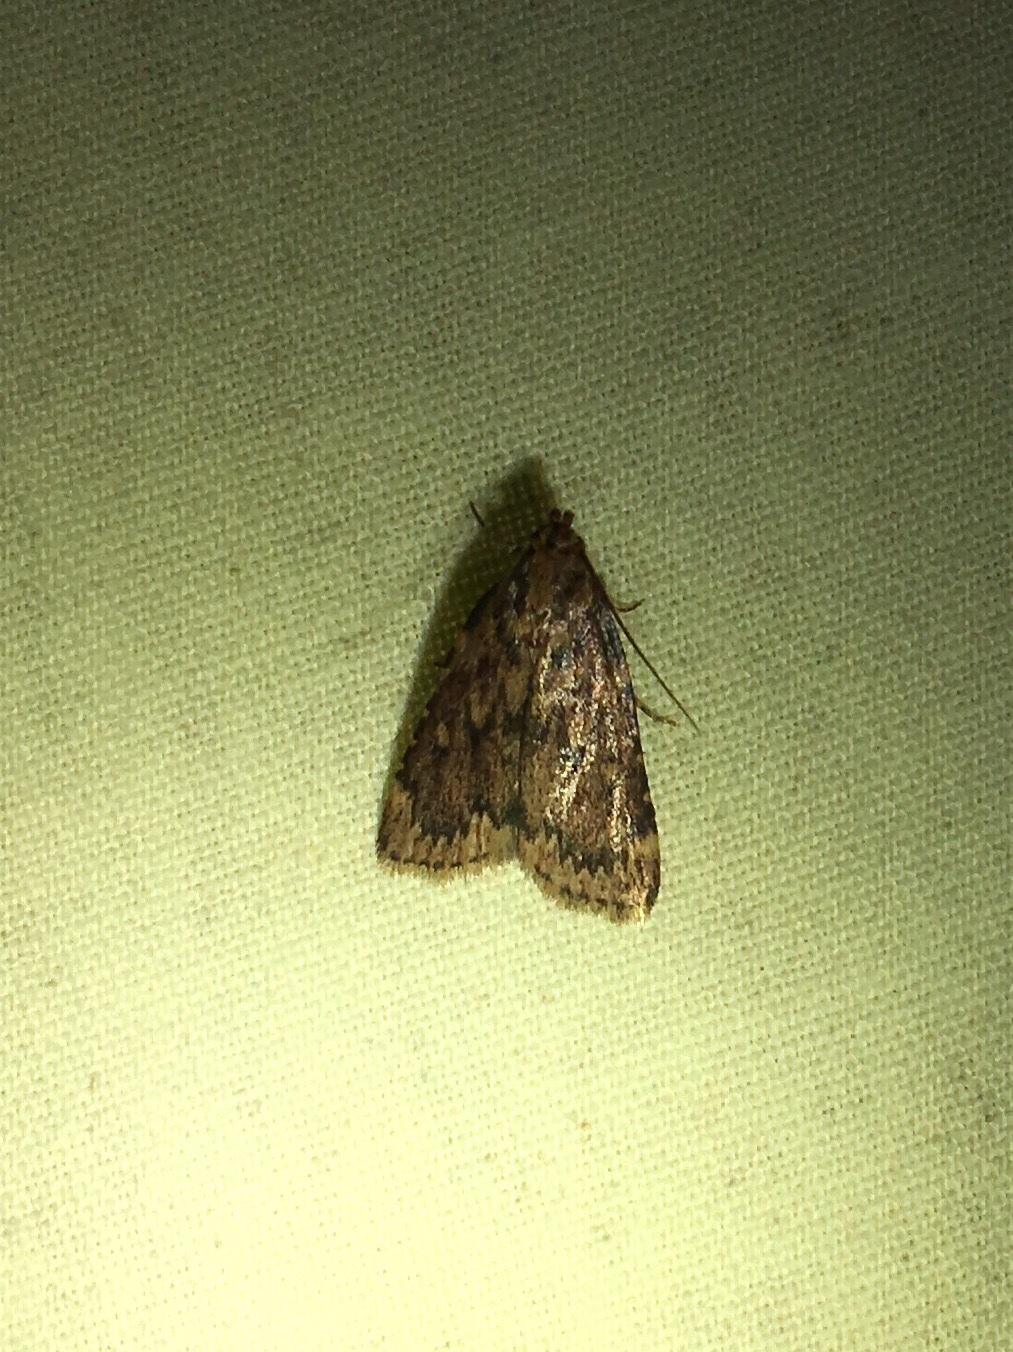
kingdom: Animalia
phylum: Arthropoda
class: Insecta
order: Lepidoptera
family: Pyralidae
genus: Aglossa
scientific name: Aglossa cuprina
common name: Grease moth
